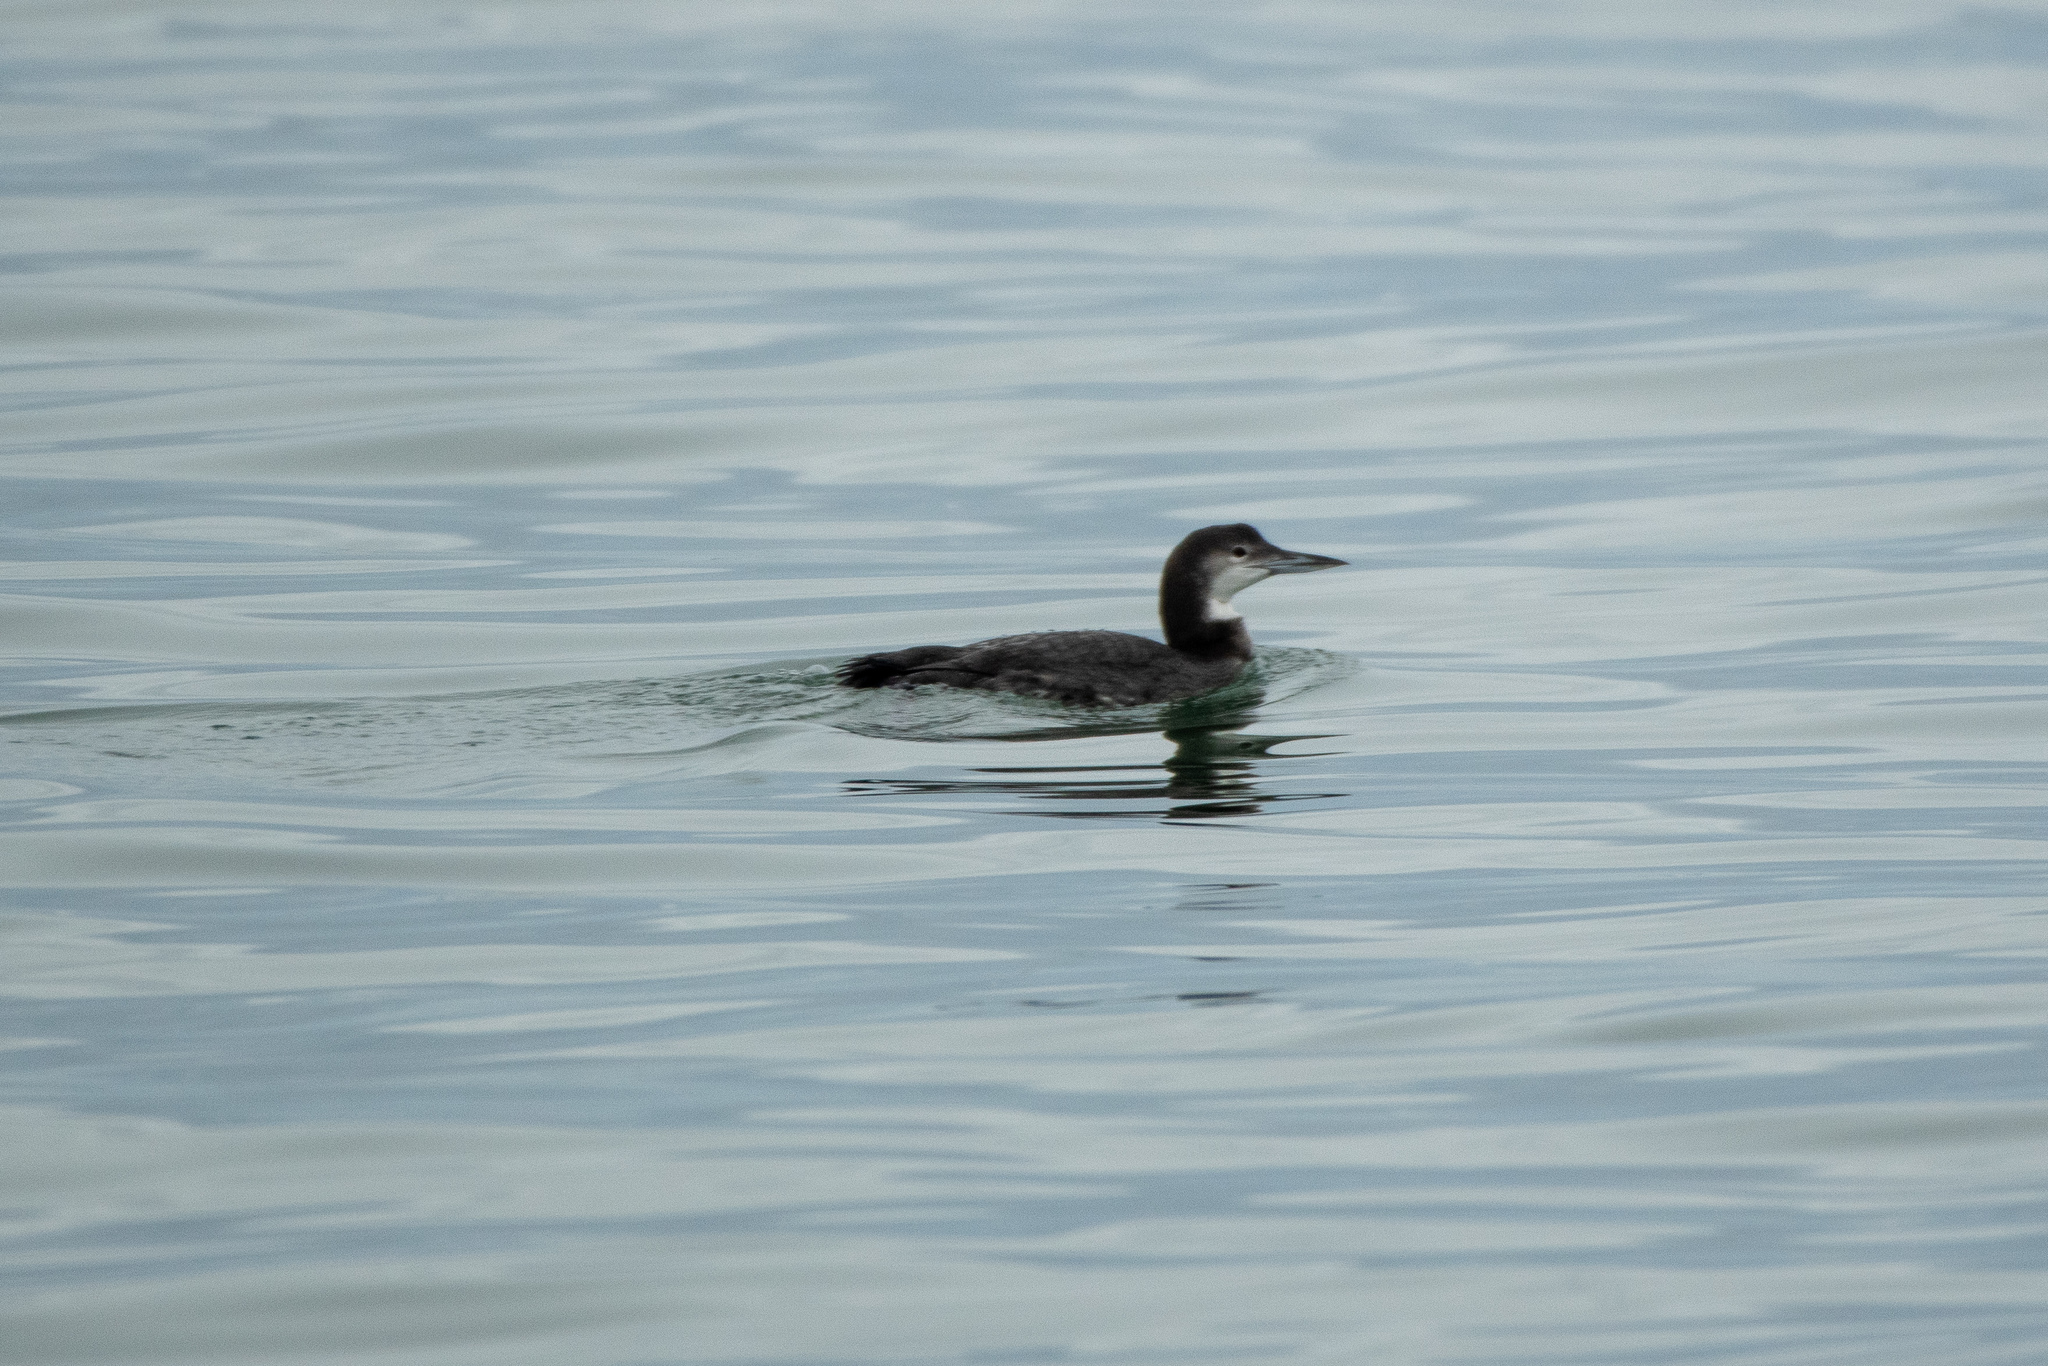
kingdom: Animalia
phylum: Chordata
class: Aves
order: Gaviiformes
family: Gaviidae
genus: Gavia
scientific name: Gavia immer
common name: Common loon
